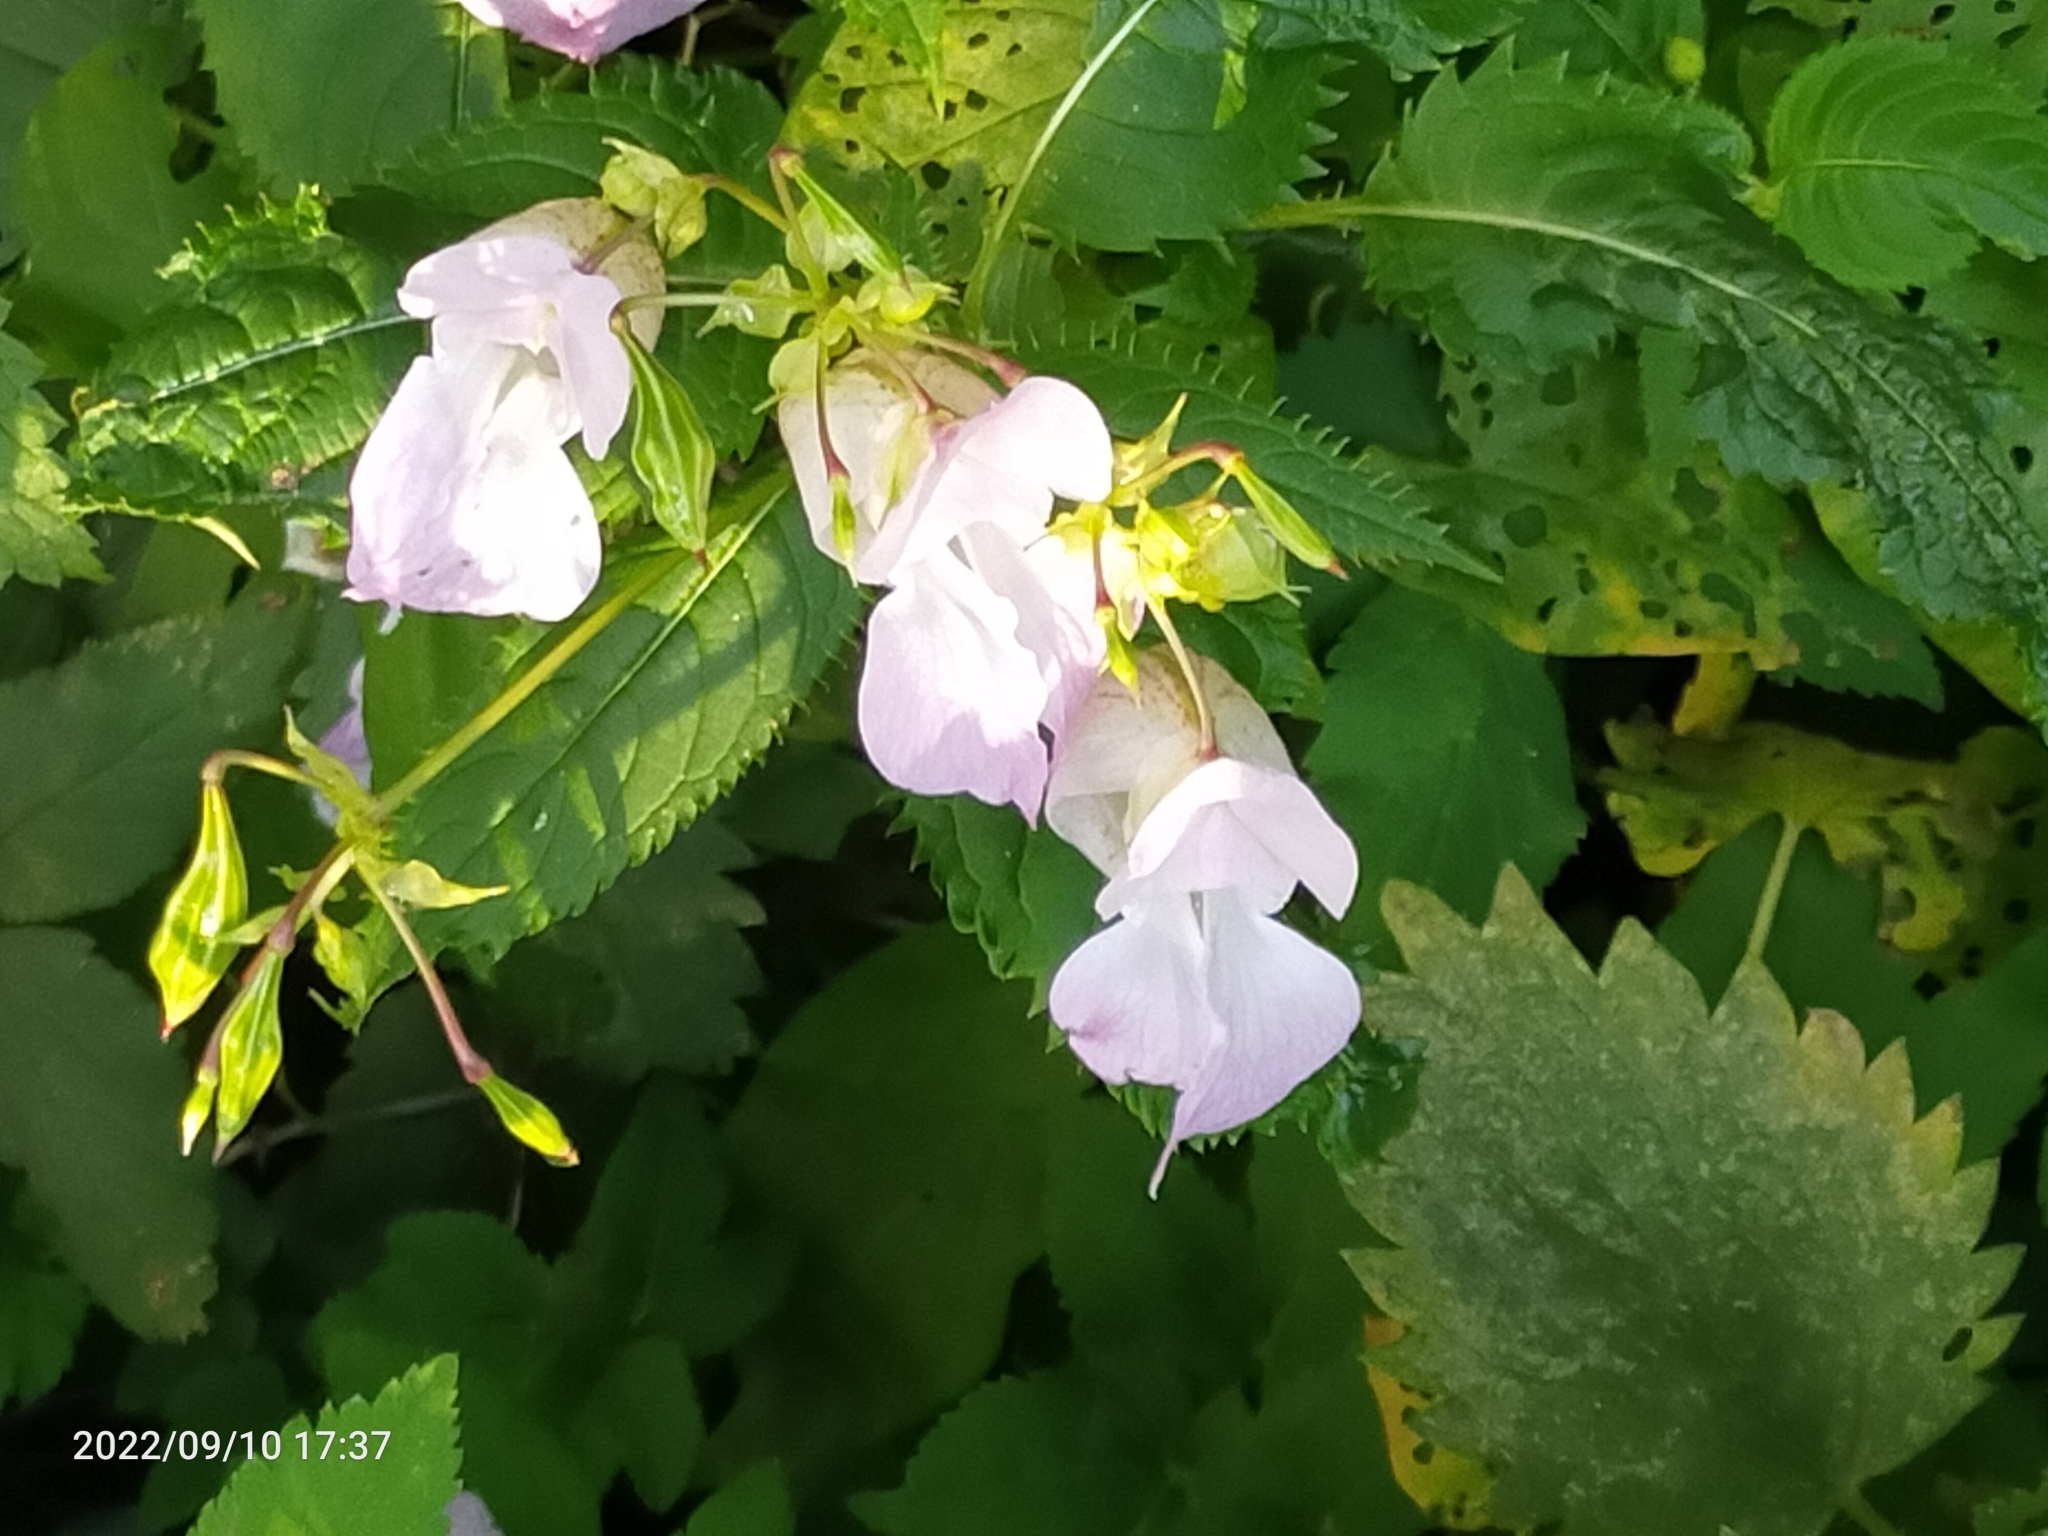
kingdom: Plantae
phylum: Tracheophyta
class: Magnoliopsida
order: Ericales
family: Balsaminaceae
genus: Impatiens
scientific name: Impatiens glandulifera
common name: Himalayan balsam
